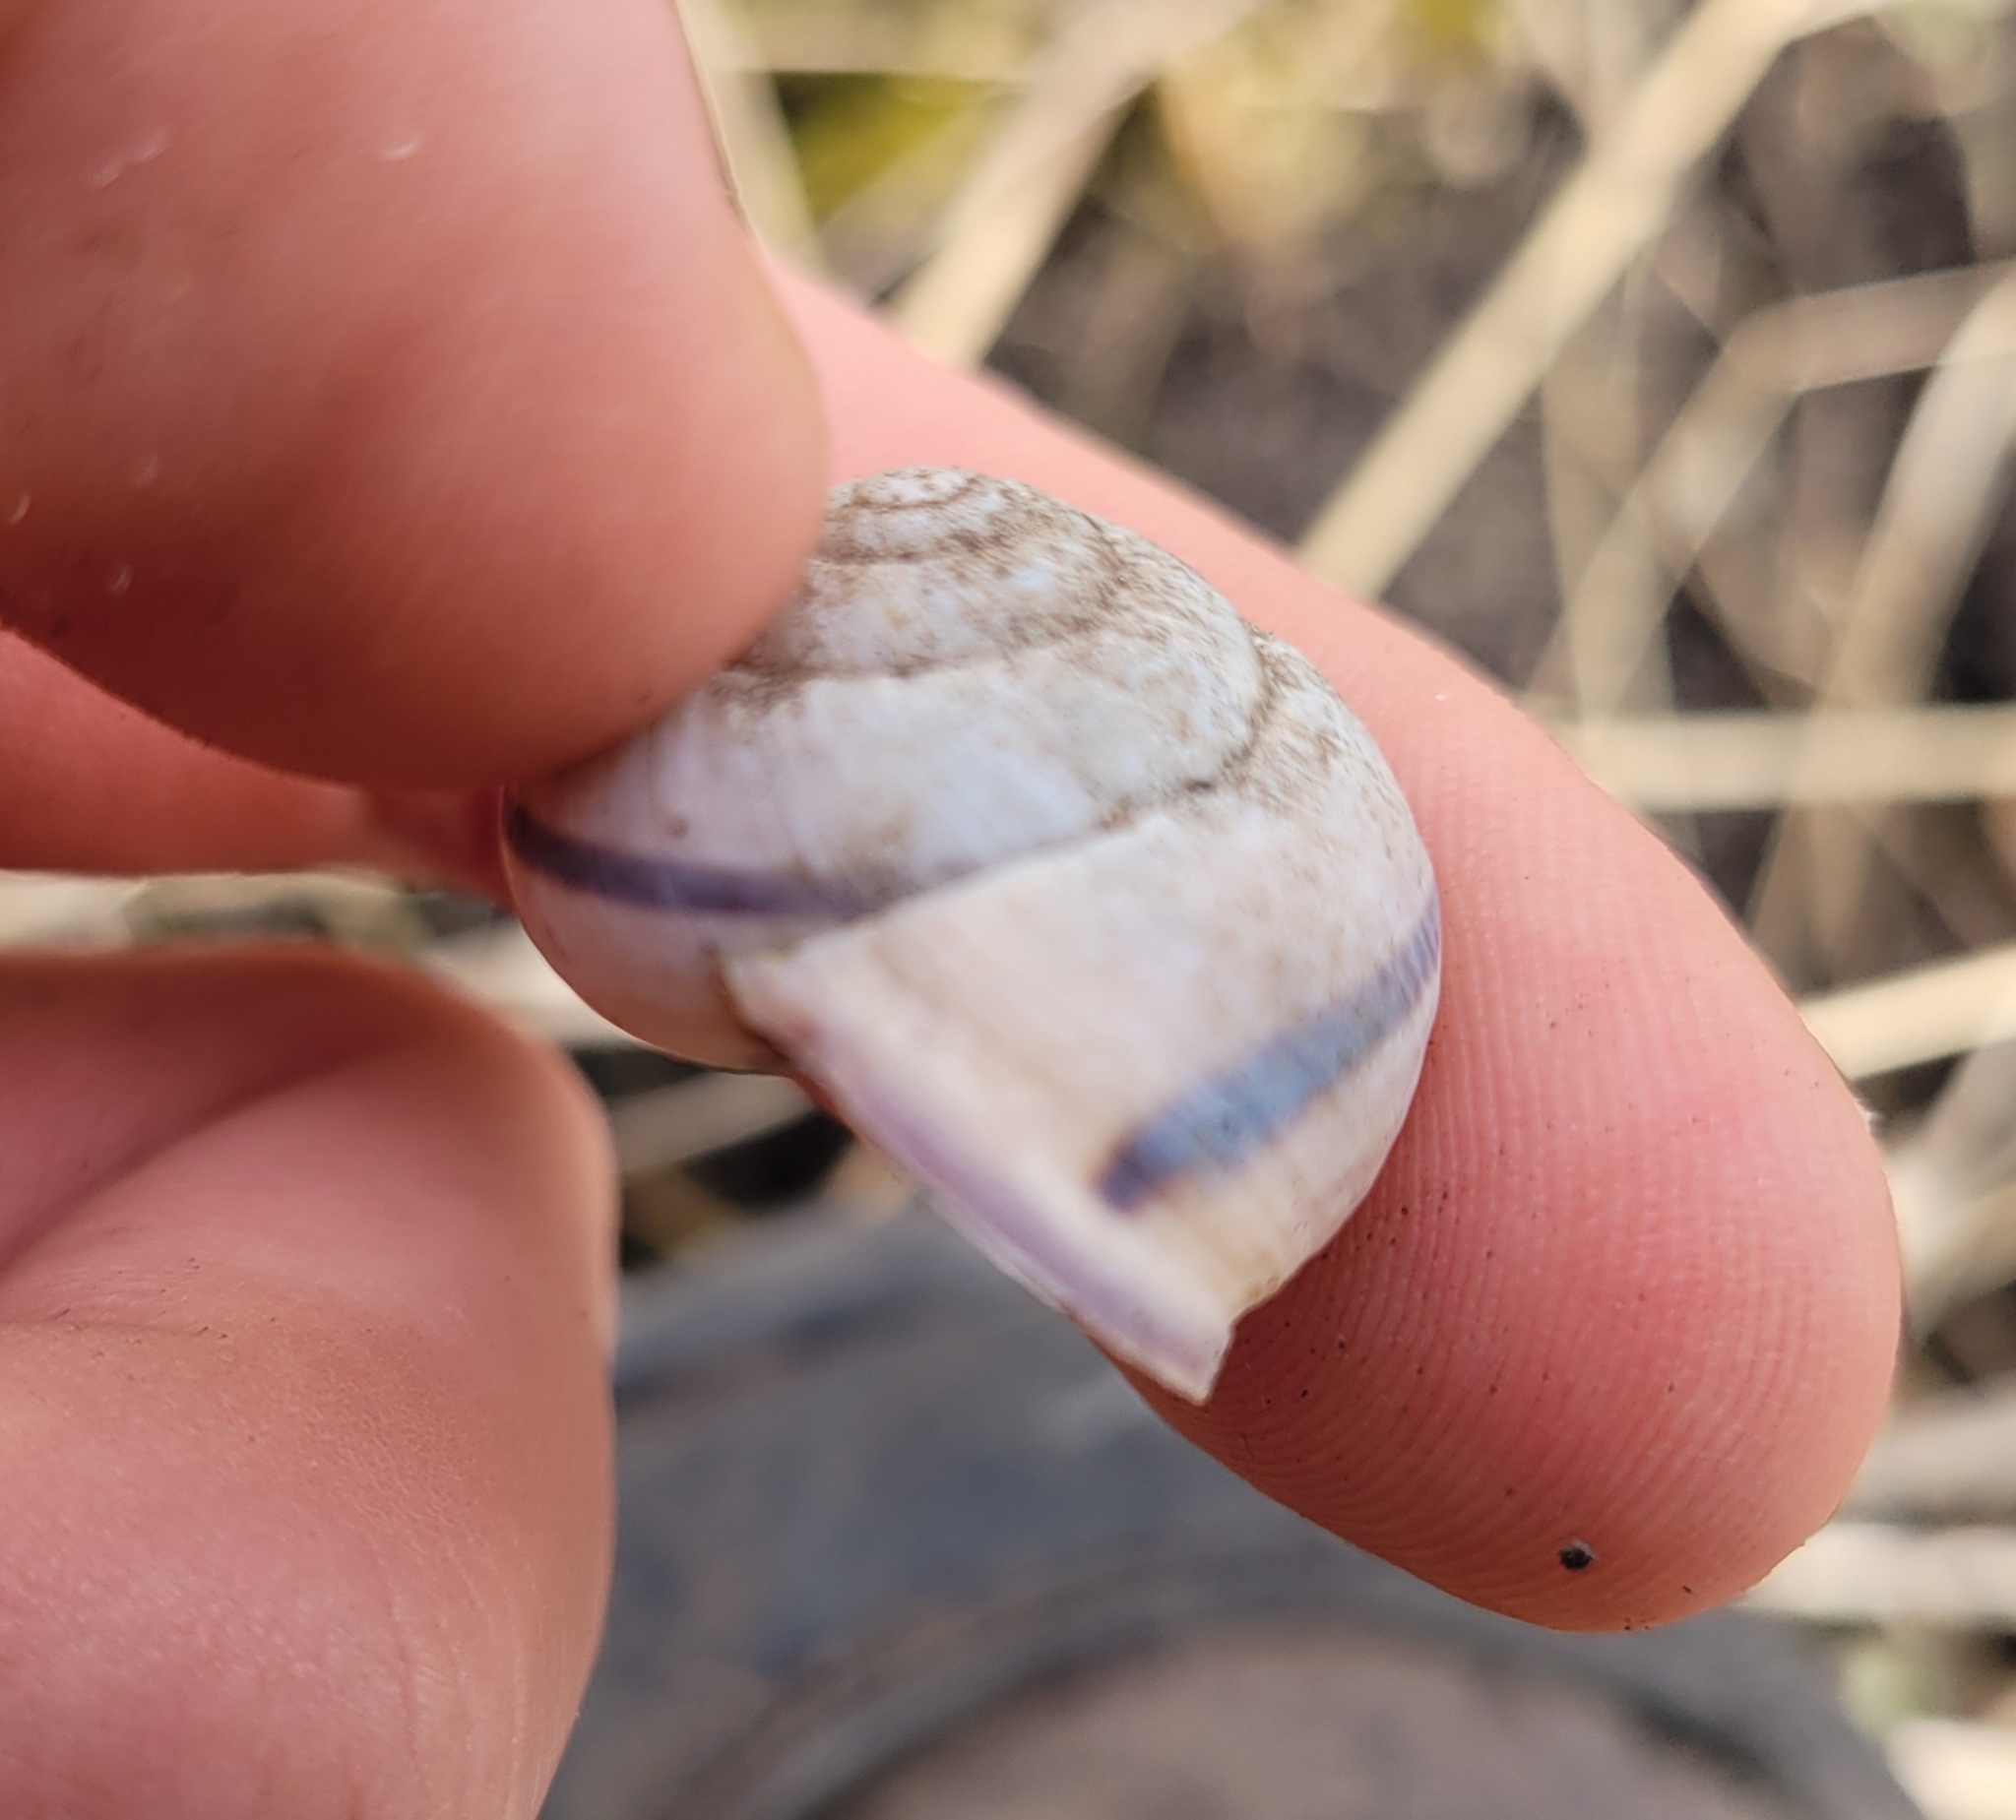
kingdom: Animalia
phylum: Mollusca
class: Gastropoda
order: Stylommatophora
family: Helicidae
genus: Cepaea
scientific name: Cepaea nemoralis
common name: Grovesnail
